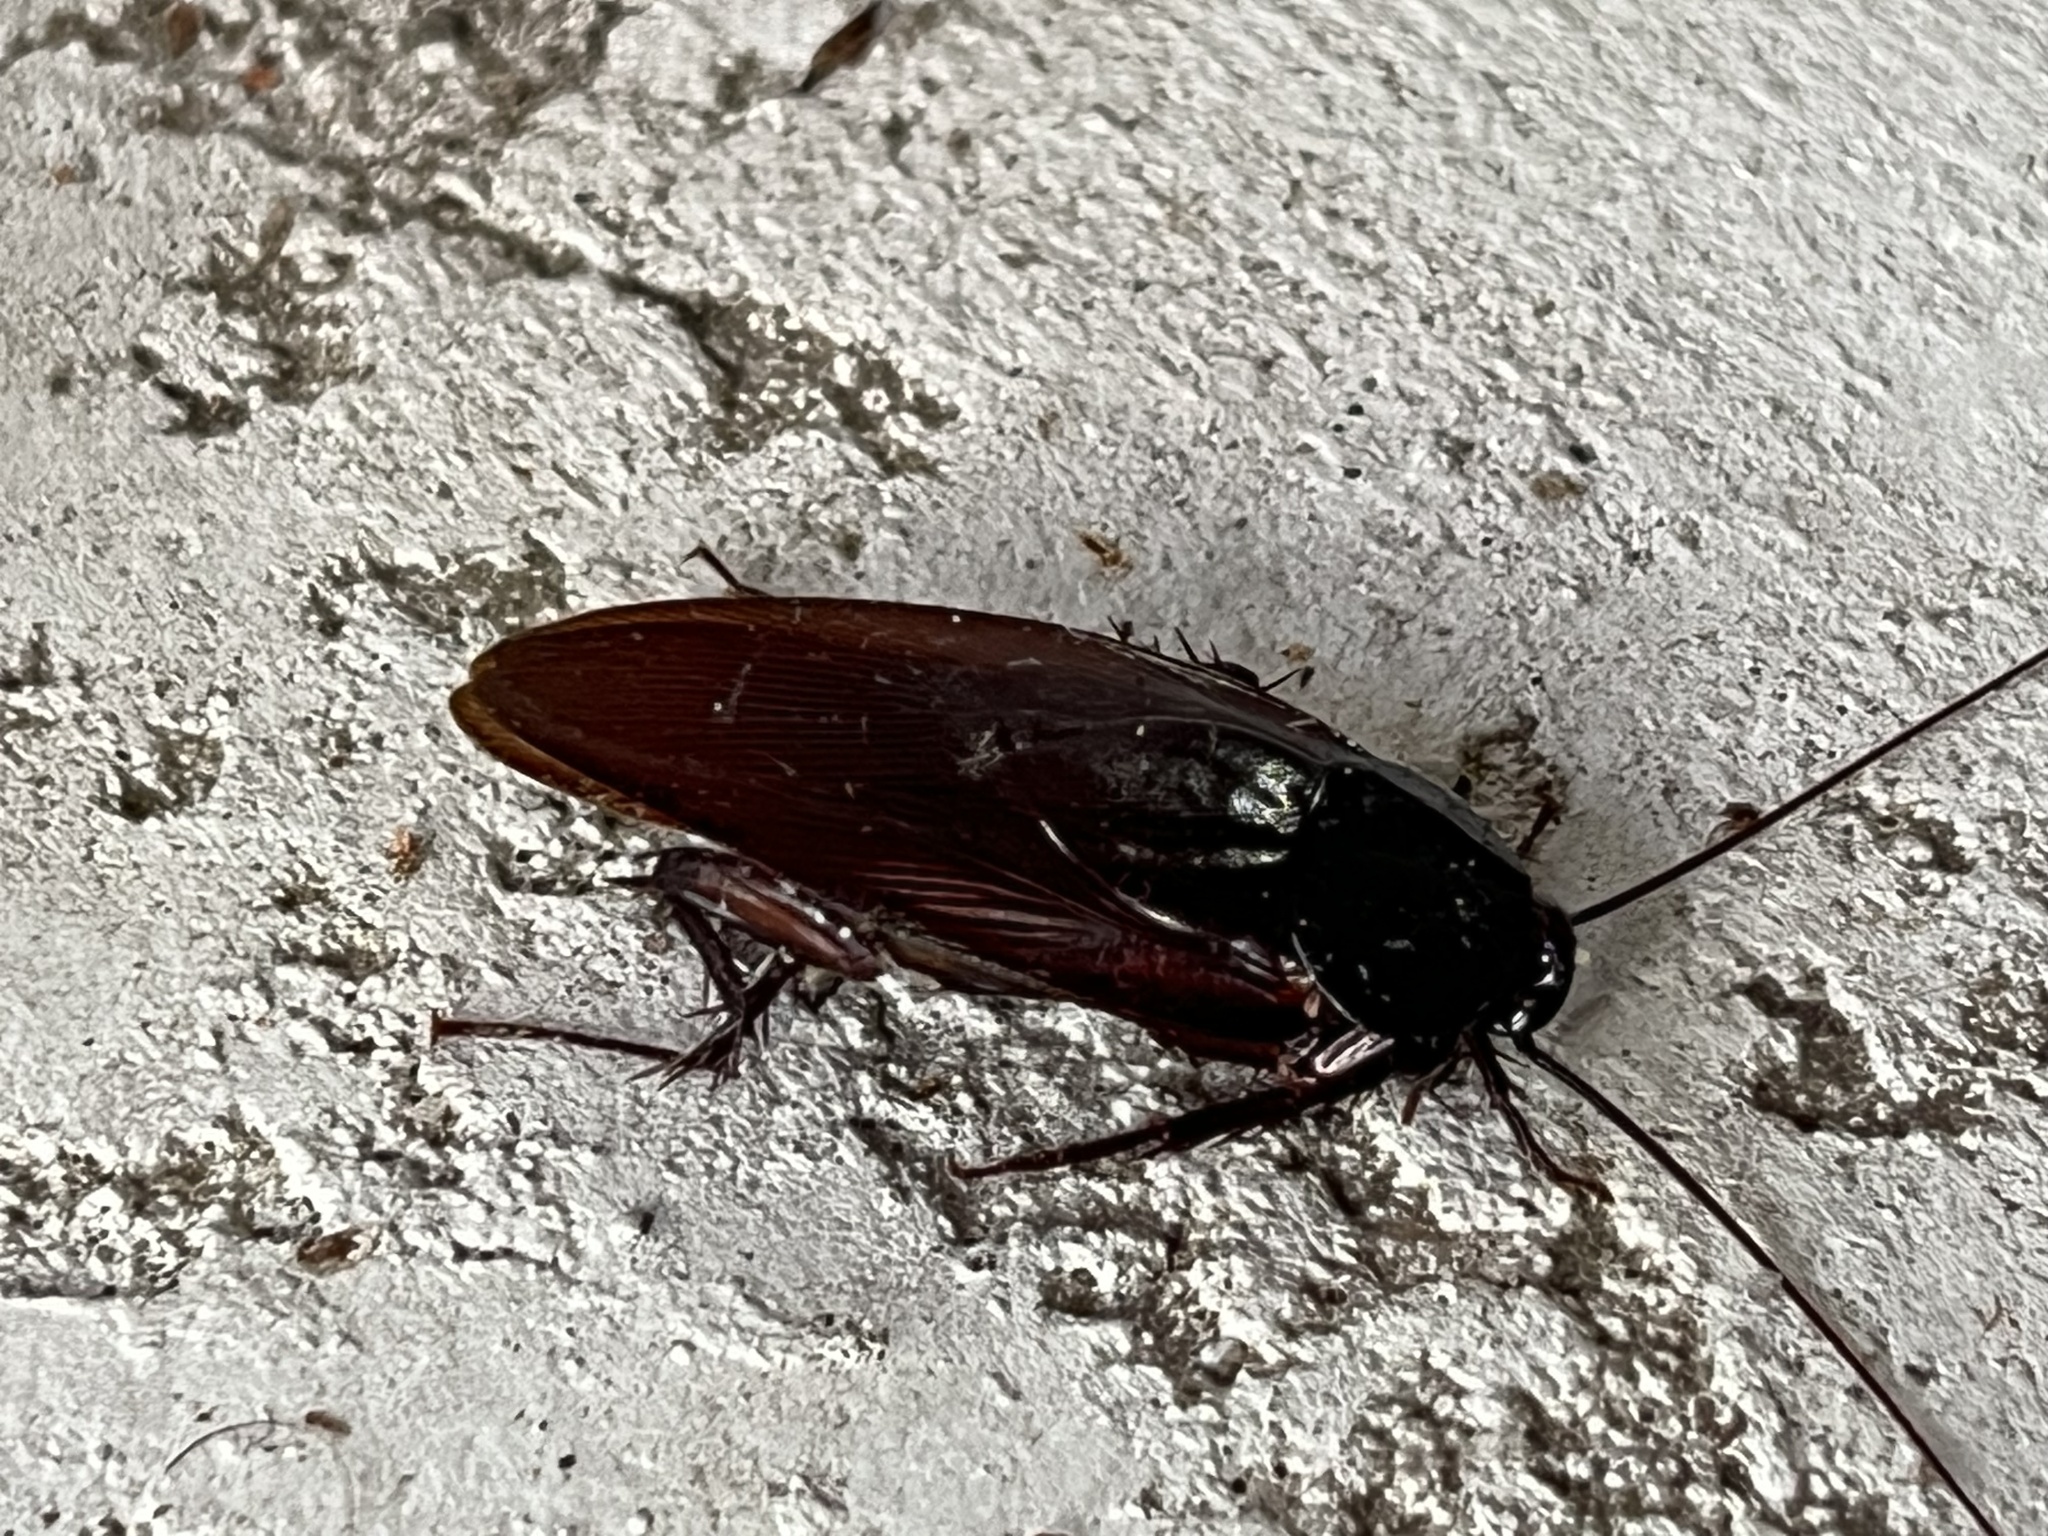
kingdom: Animalia
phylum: Arthropoda
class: Insecta
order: Blattodea
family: Blattidae
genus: Periplaneta
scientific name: Periplaneta fuliginosa
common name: Smokeybrown cockroad
